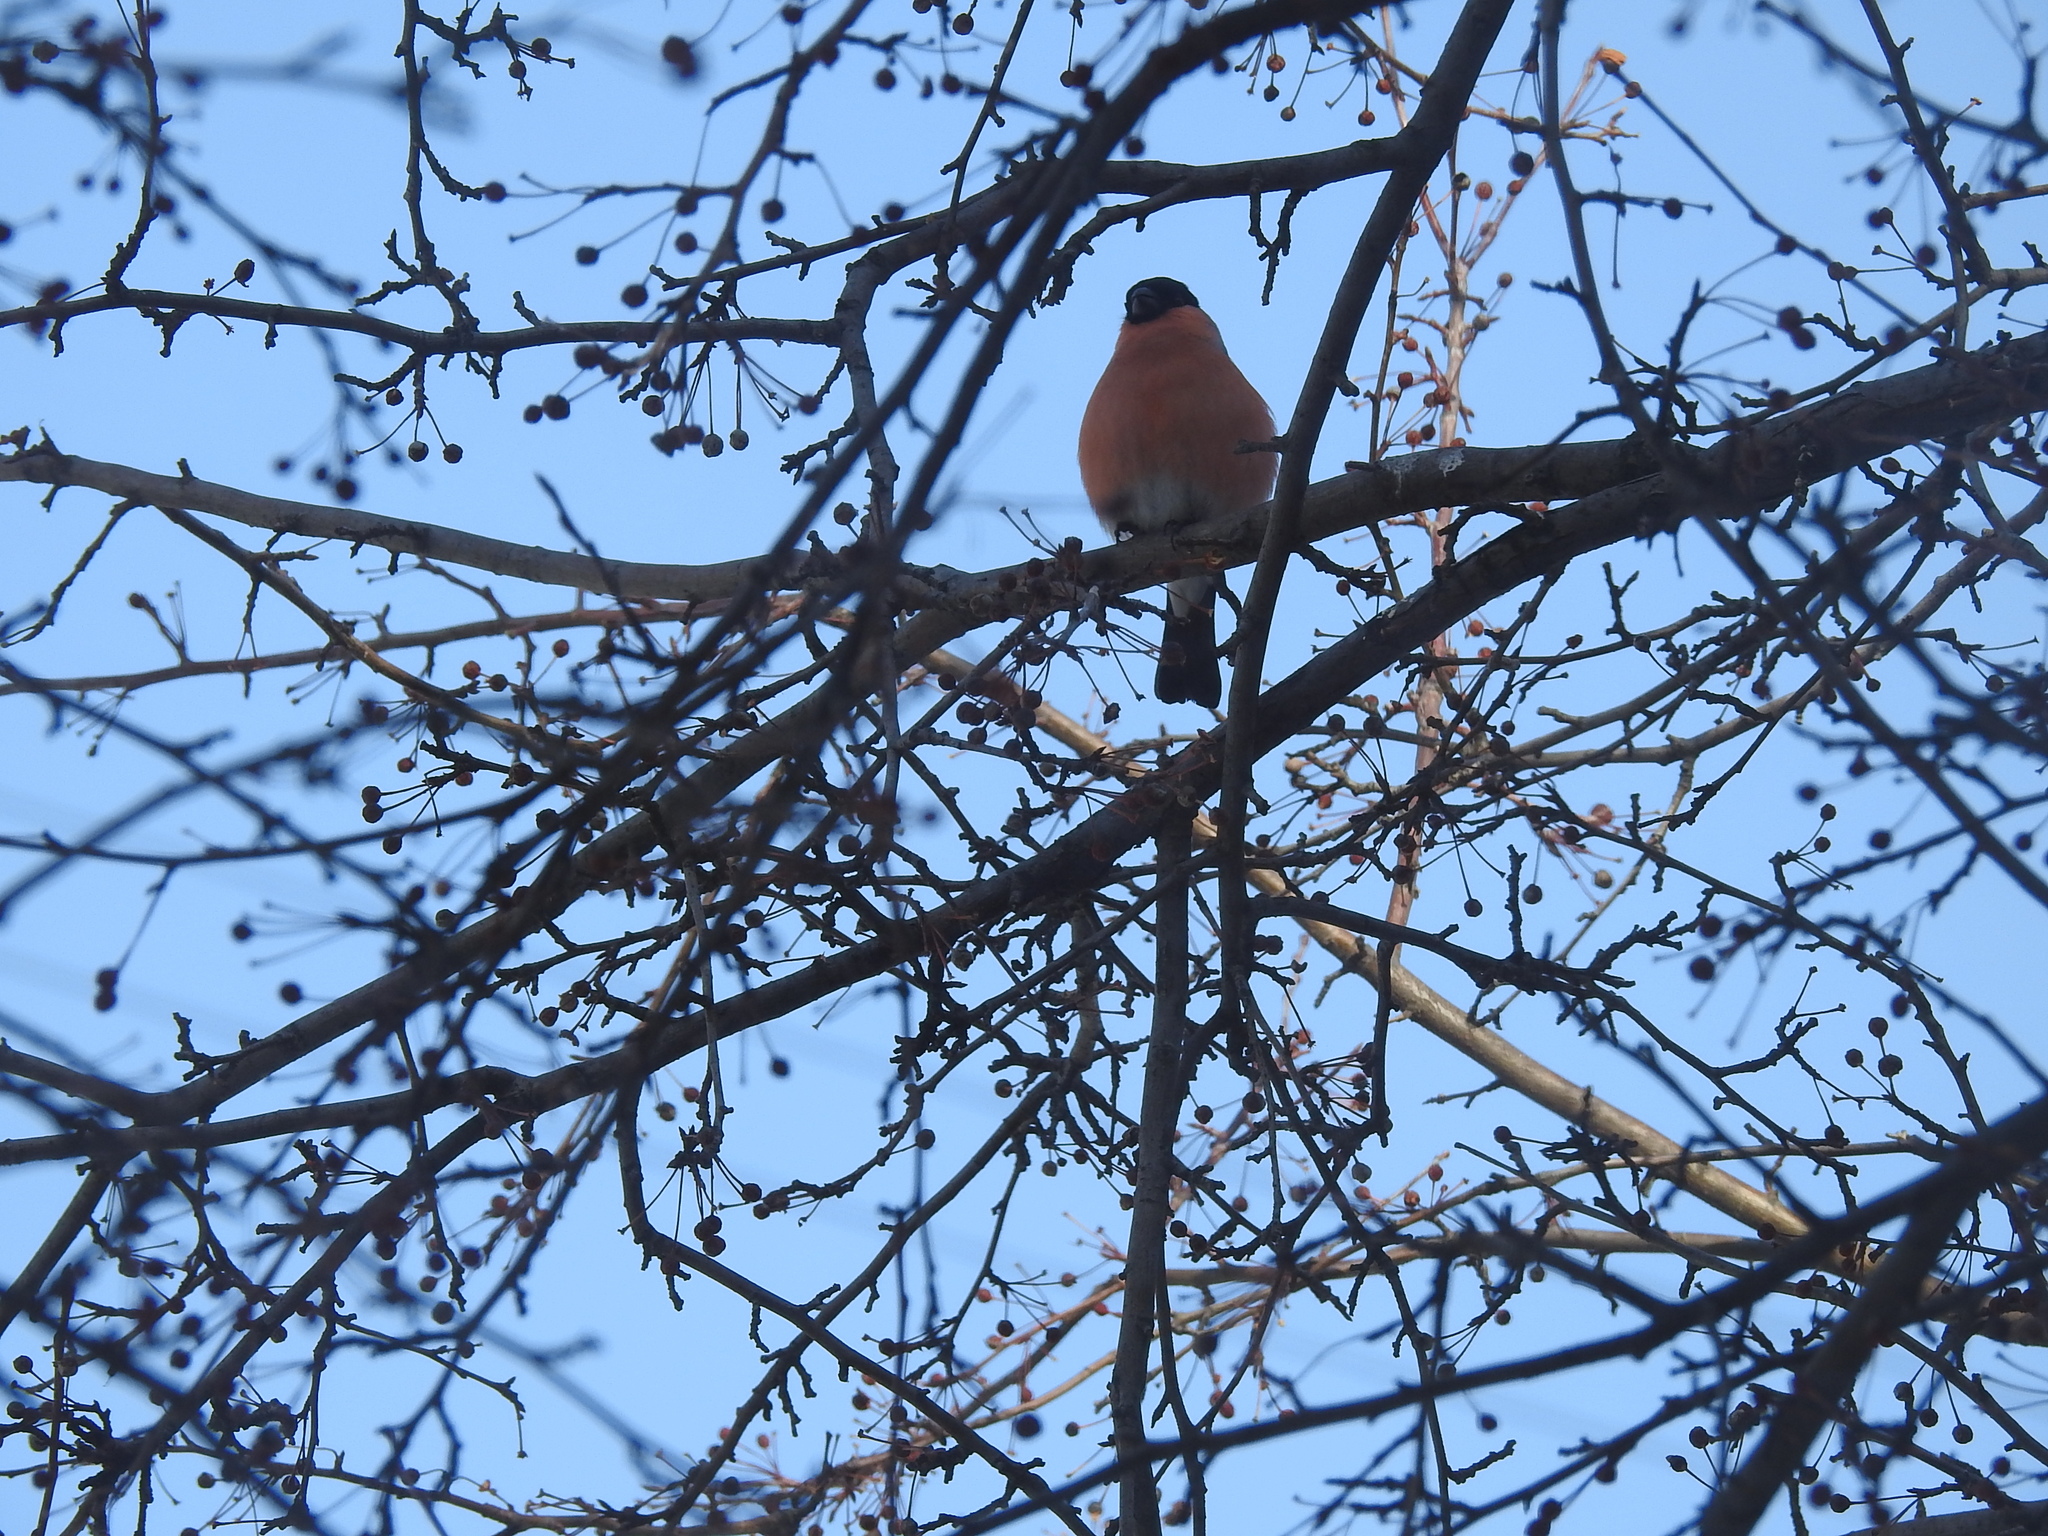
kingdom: Animalia
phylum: Chordata
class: Aves
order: Passeriformes
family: Fringillidae
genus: Pyrrhula
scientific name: Pyrrhula pyrrhula
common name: Eurasian bullfinch
